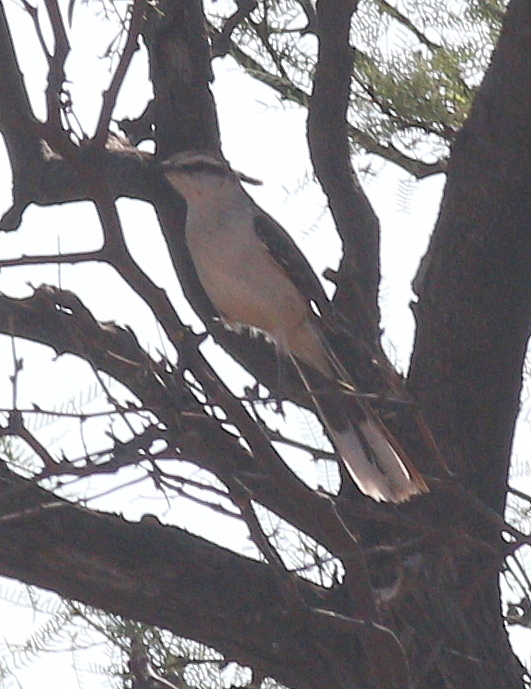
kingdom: Animalia
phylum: Chordata
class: Aves
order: Passeriformes
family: Mimidae
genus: Mimus
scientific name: Mimus saturninus
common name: Chalk-browed mockingbird
